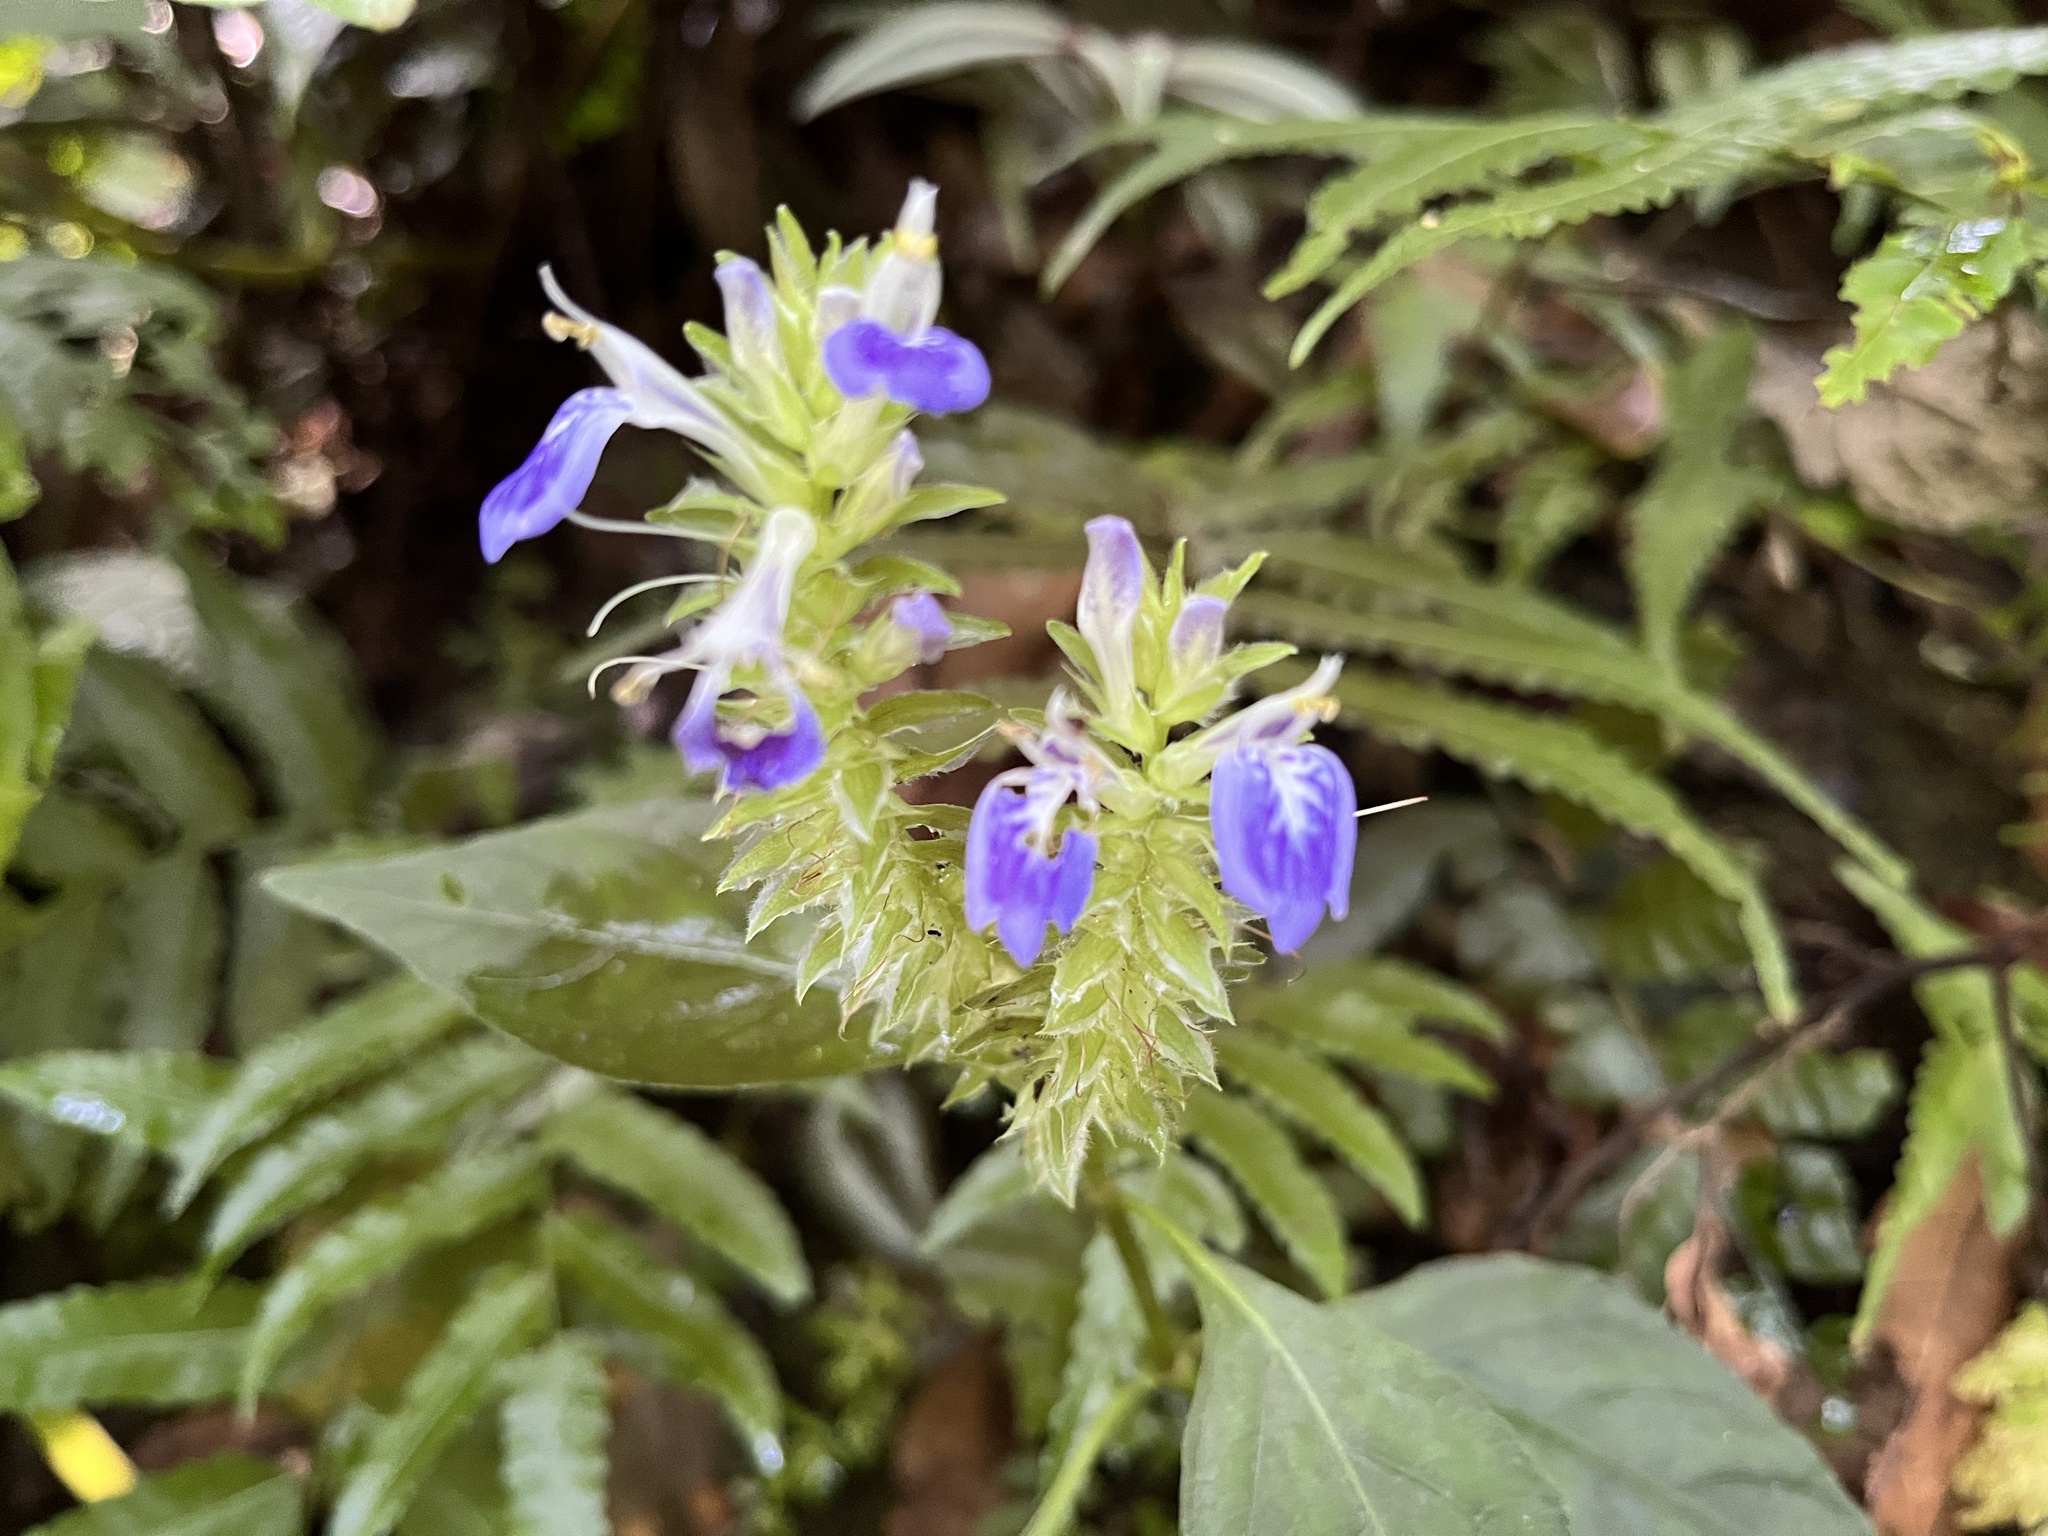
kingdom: Plantae
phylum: Tracheophyta
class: Magnoliopsida
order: Lamiales
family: Acanthaceae
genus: Rungia
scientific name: Rungia taiwanensis
